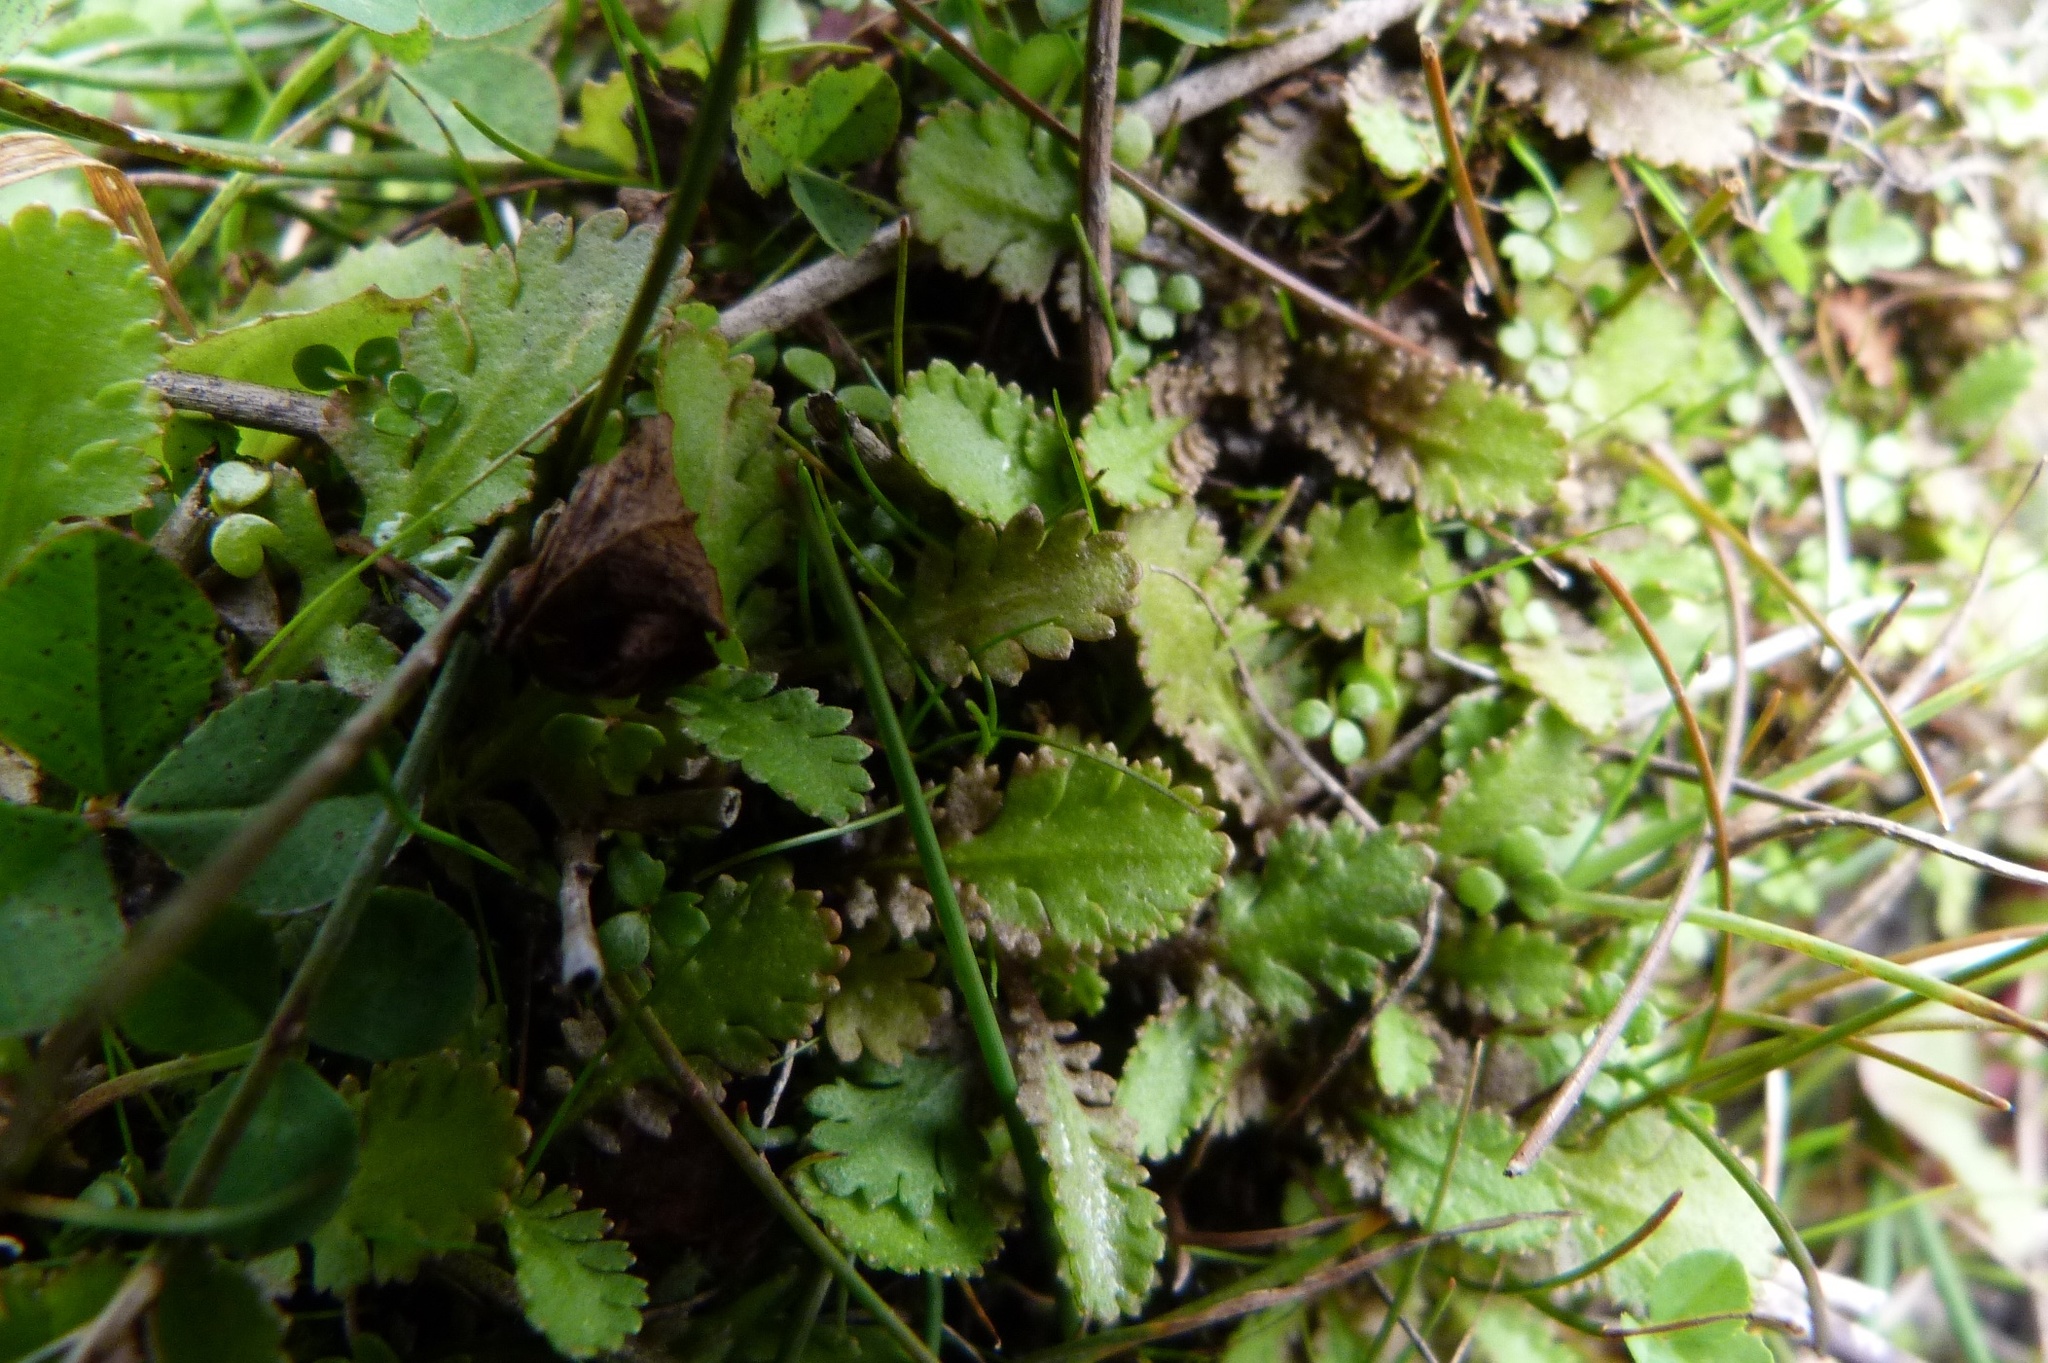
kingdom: Plantae
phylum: Tracheophyta
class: Magnoliopsida
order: Asterales
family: Asteraceae
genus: Leptinella
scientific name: Leptinella squalida
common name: New zealand brass-buttons
